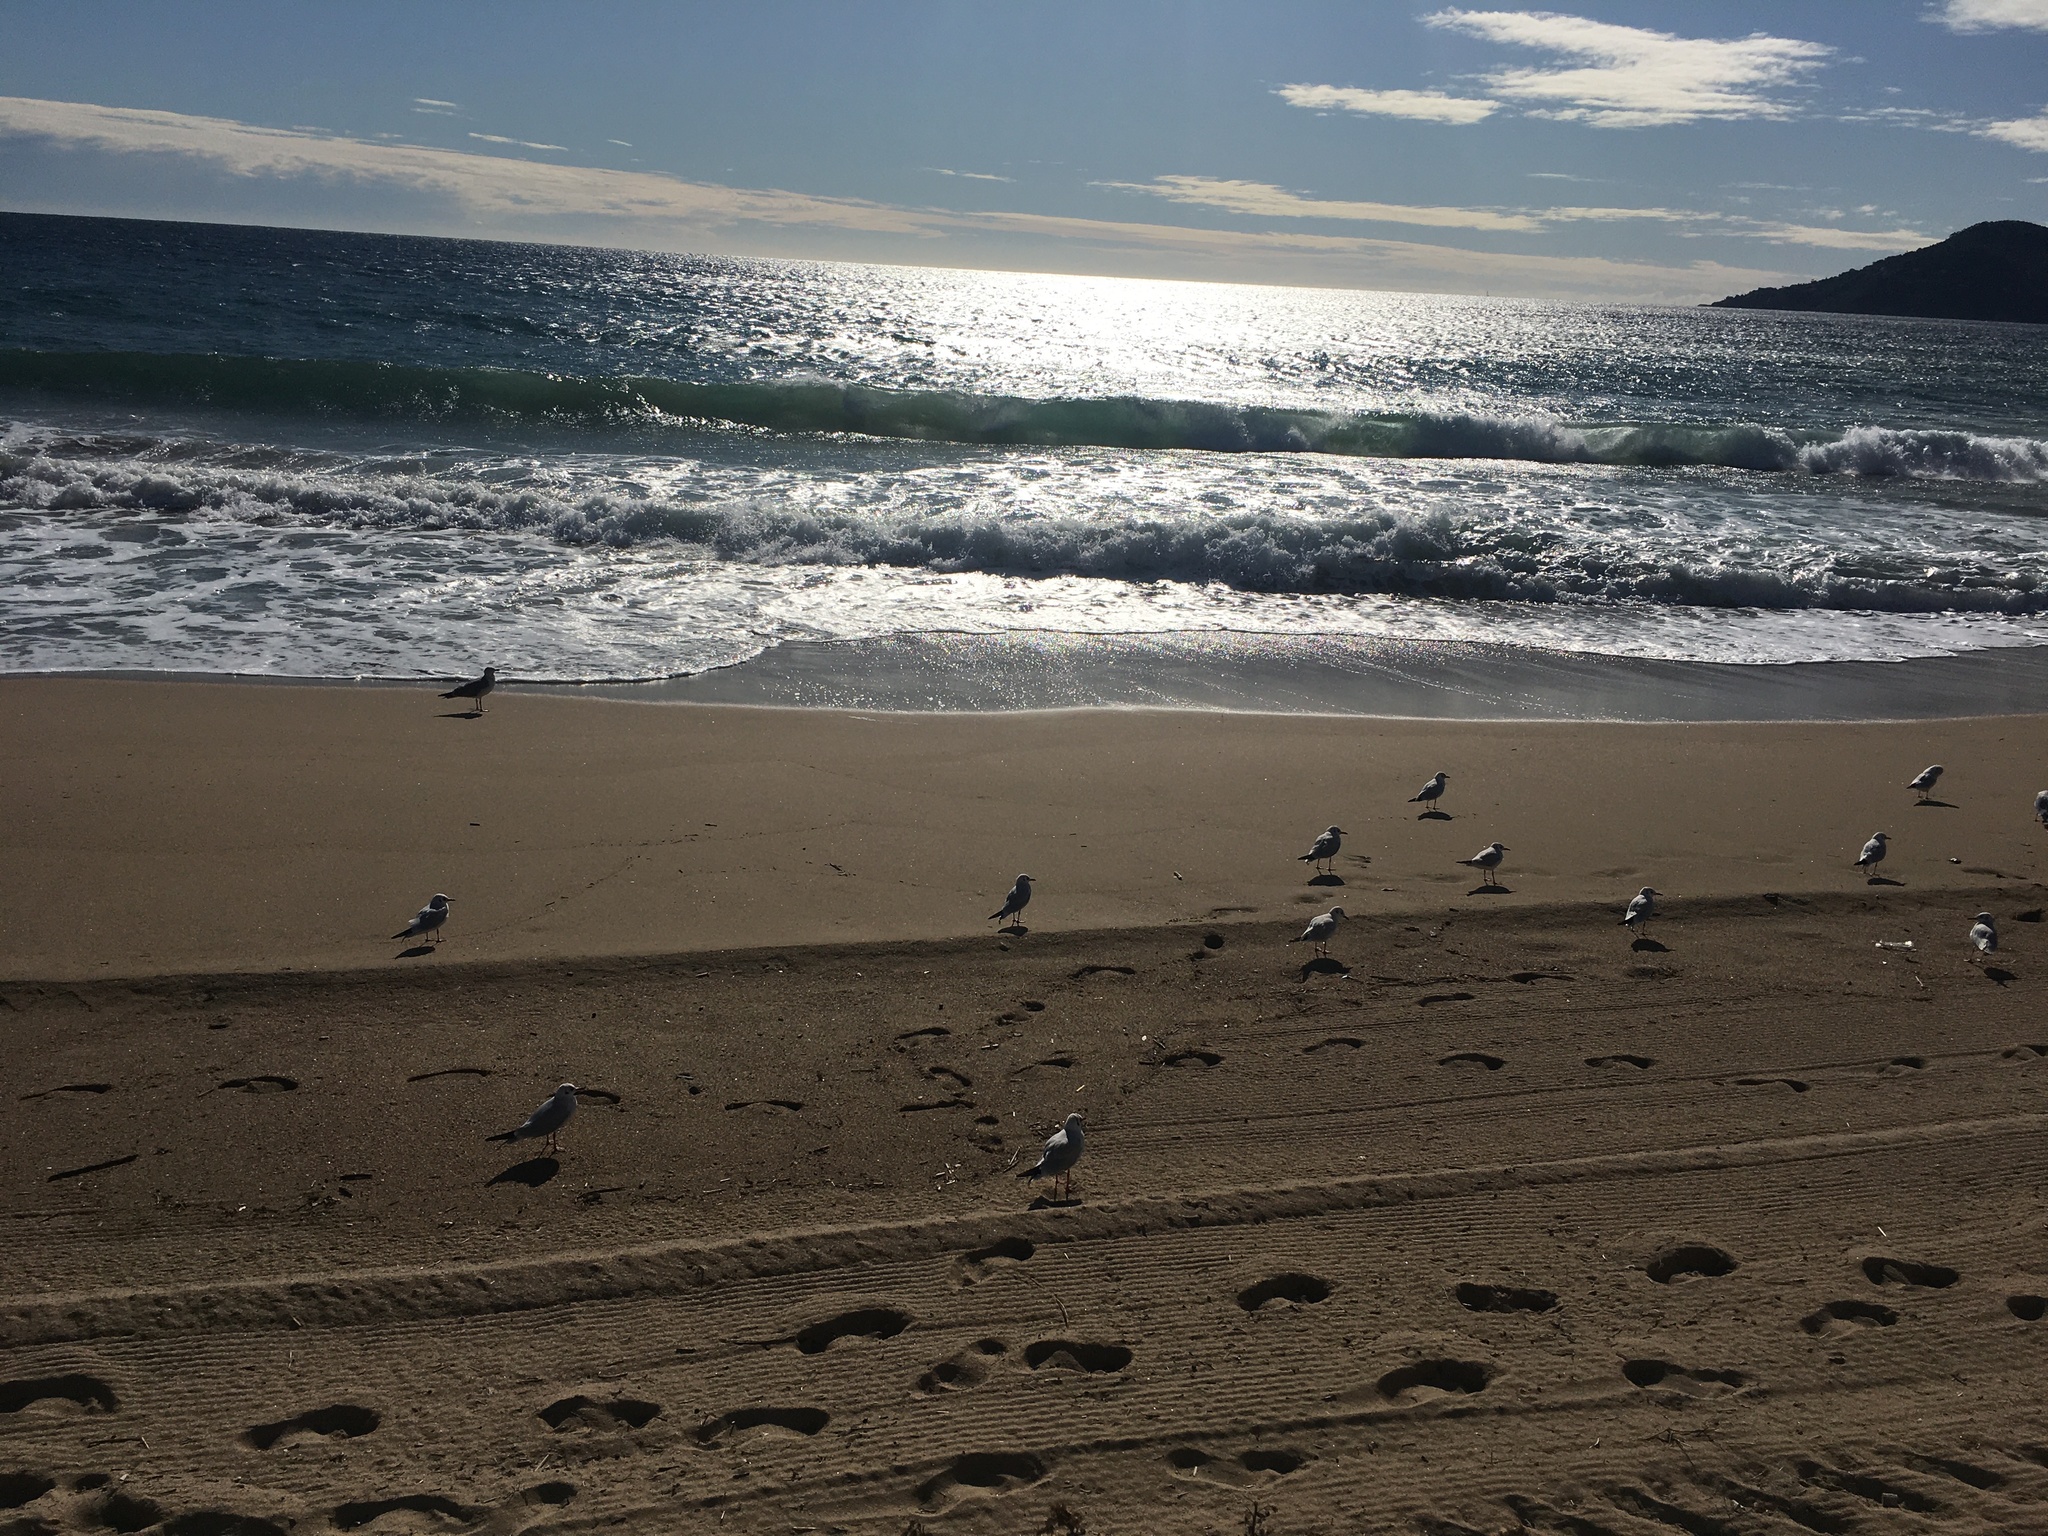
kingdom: Animalia
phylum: Chordata
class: Aves
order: Charadriiformes
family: Laridae
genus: Chroicocephalus
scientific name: Chroicocephalus ridibundus
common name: Black-headed gull
